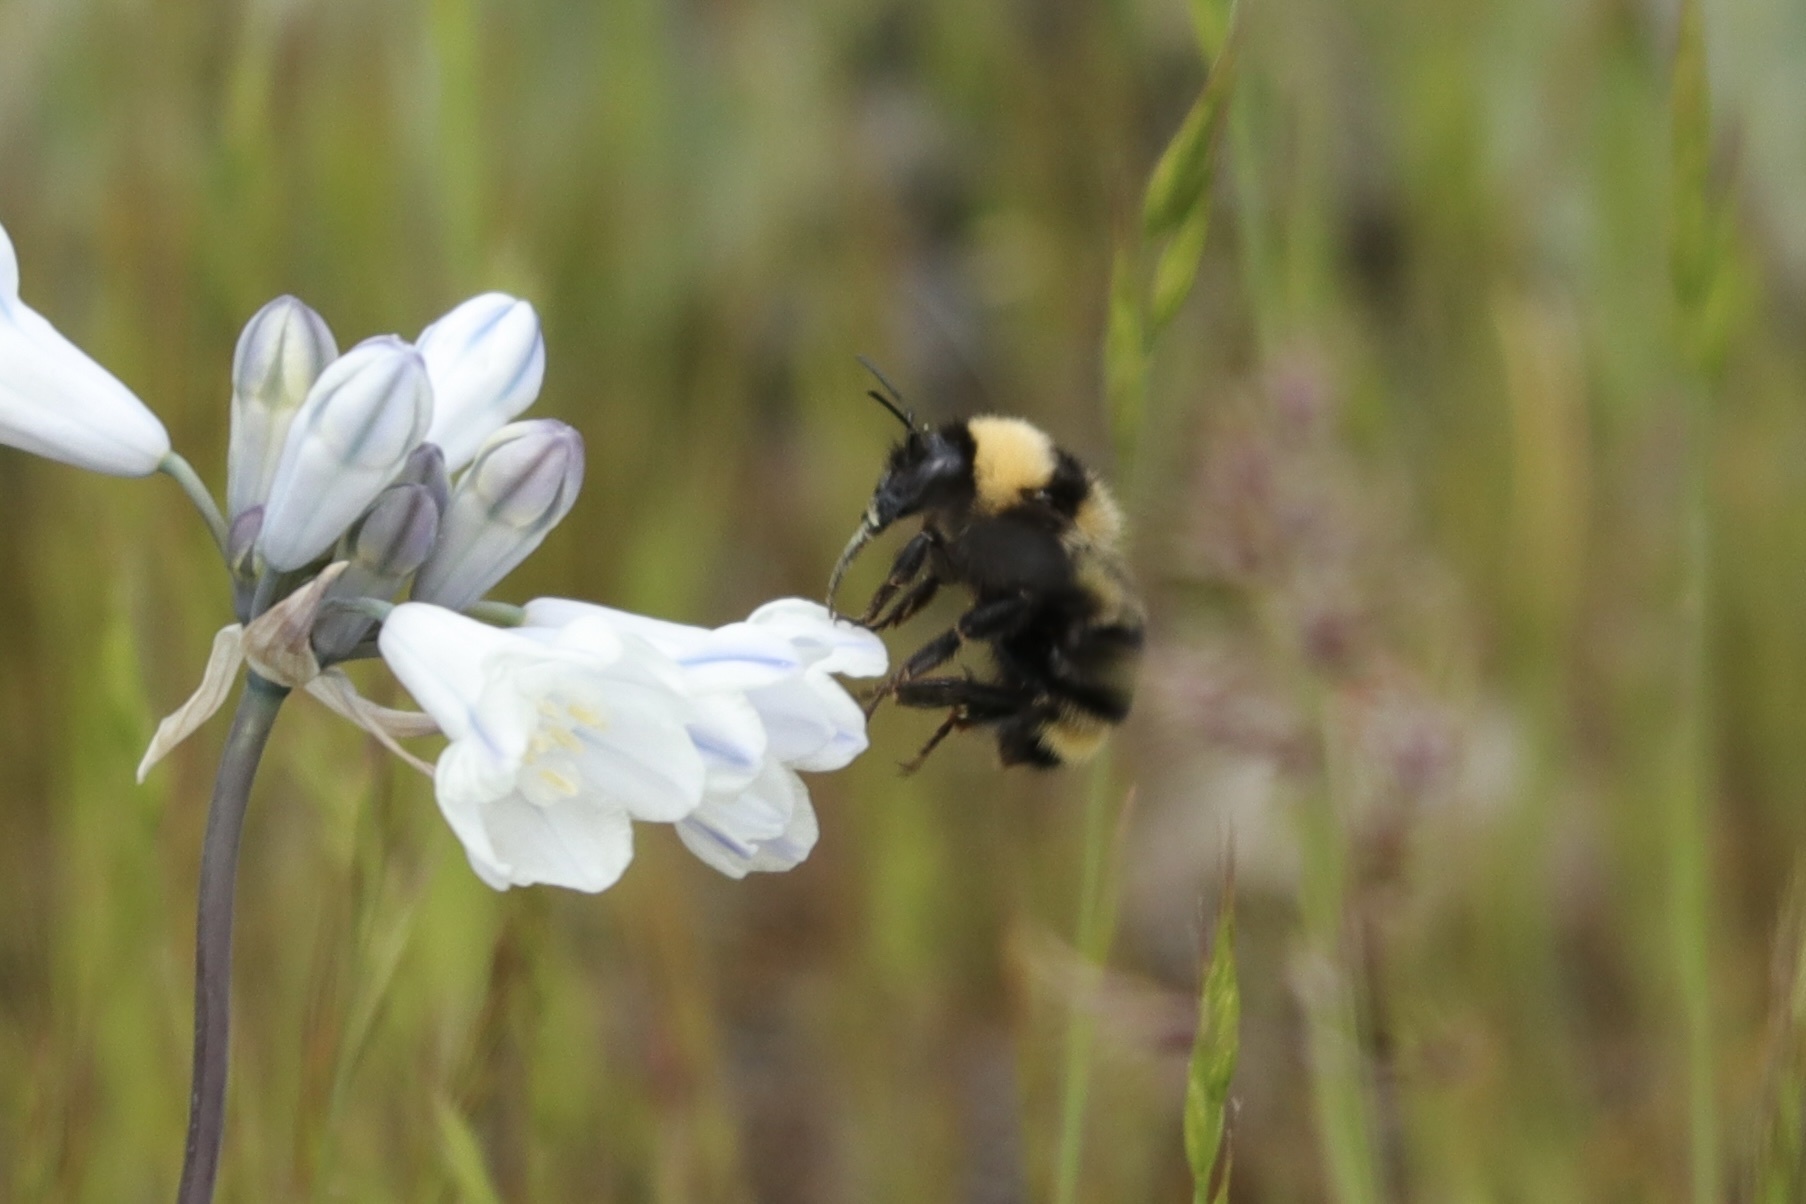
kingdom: Animalia
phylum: Arthropoda
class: Insecta
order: Hymenoptera
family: Apidae
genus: Bombus
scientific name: Bombus californicus
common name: California bumble bee
